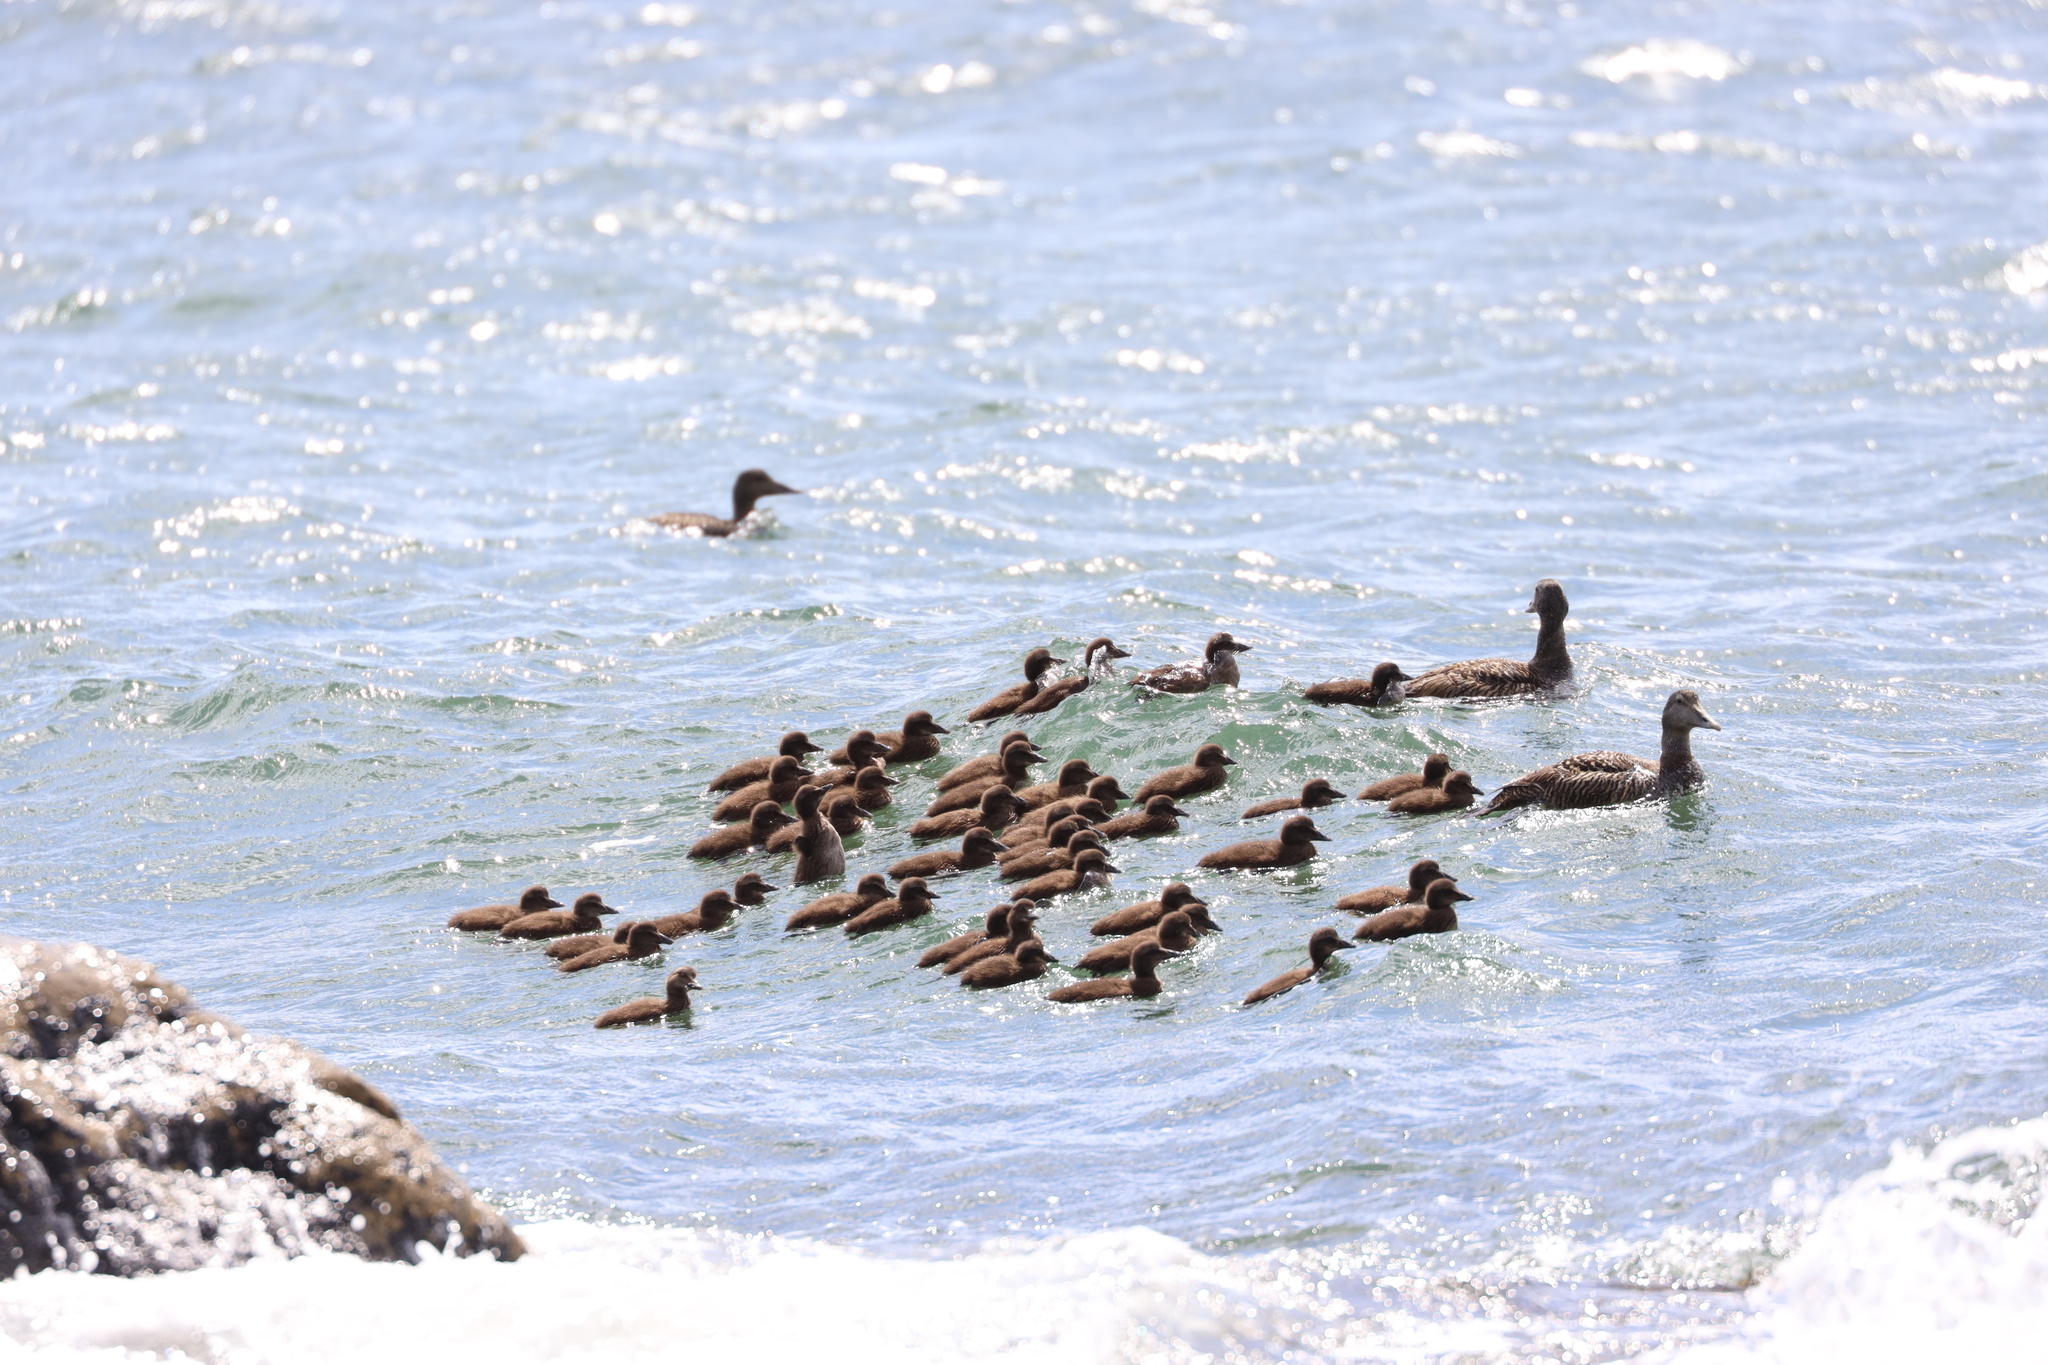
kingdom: Animalia
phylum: Chordata
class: Aves
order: Anseriformes
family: Anatidae
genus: Somateria
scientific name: Somateria mollissima
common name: Common eider
